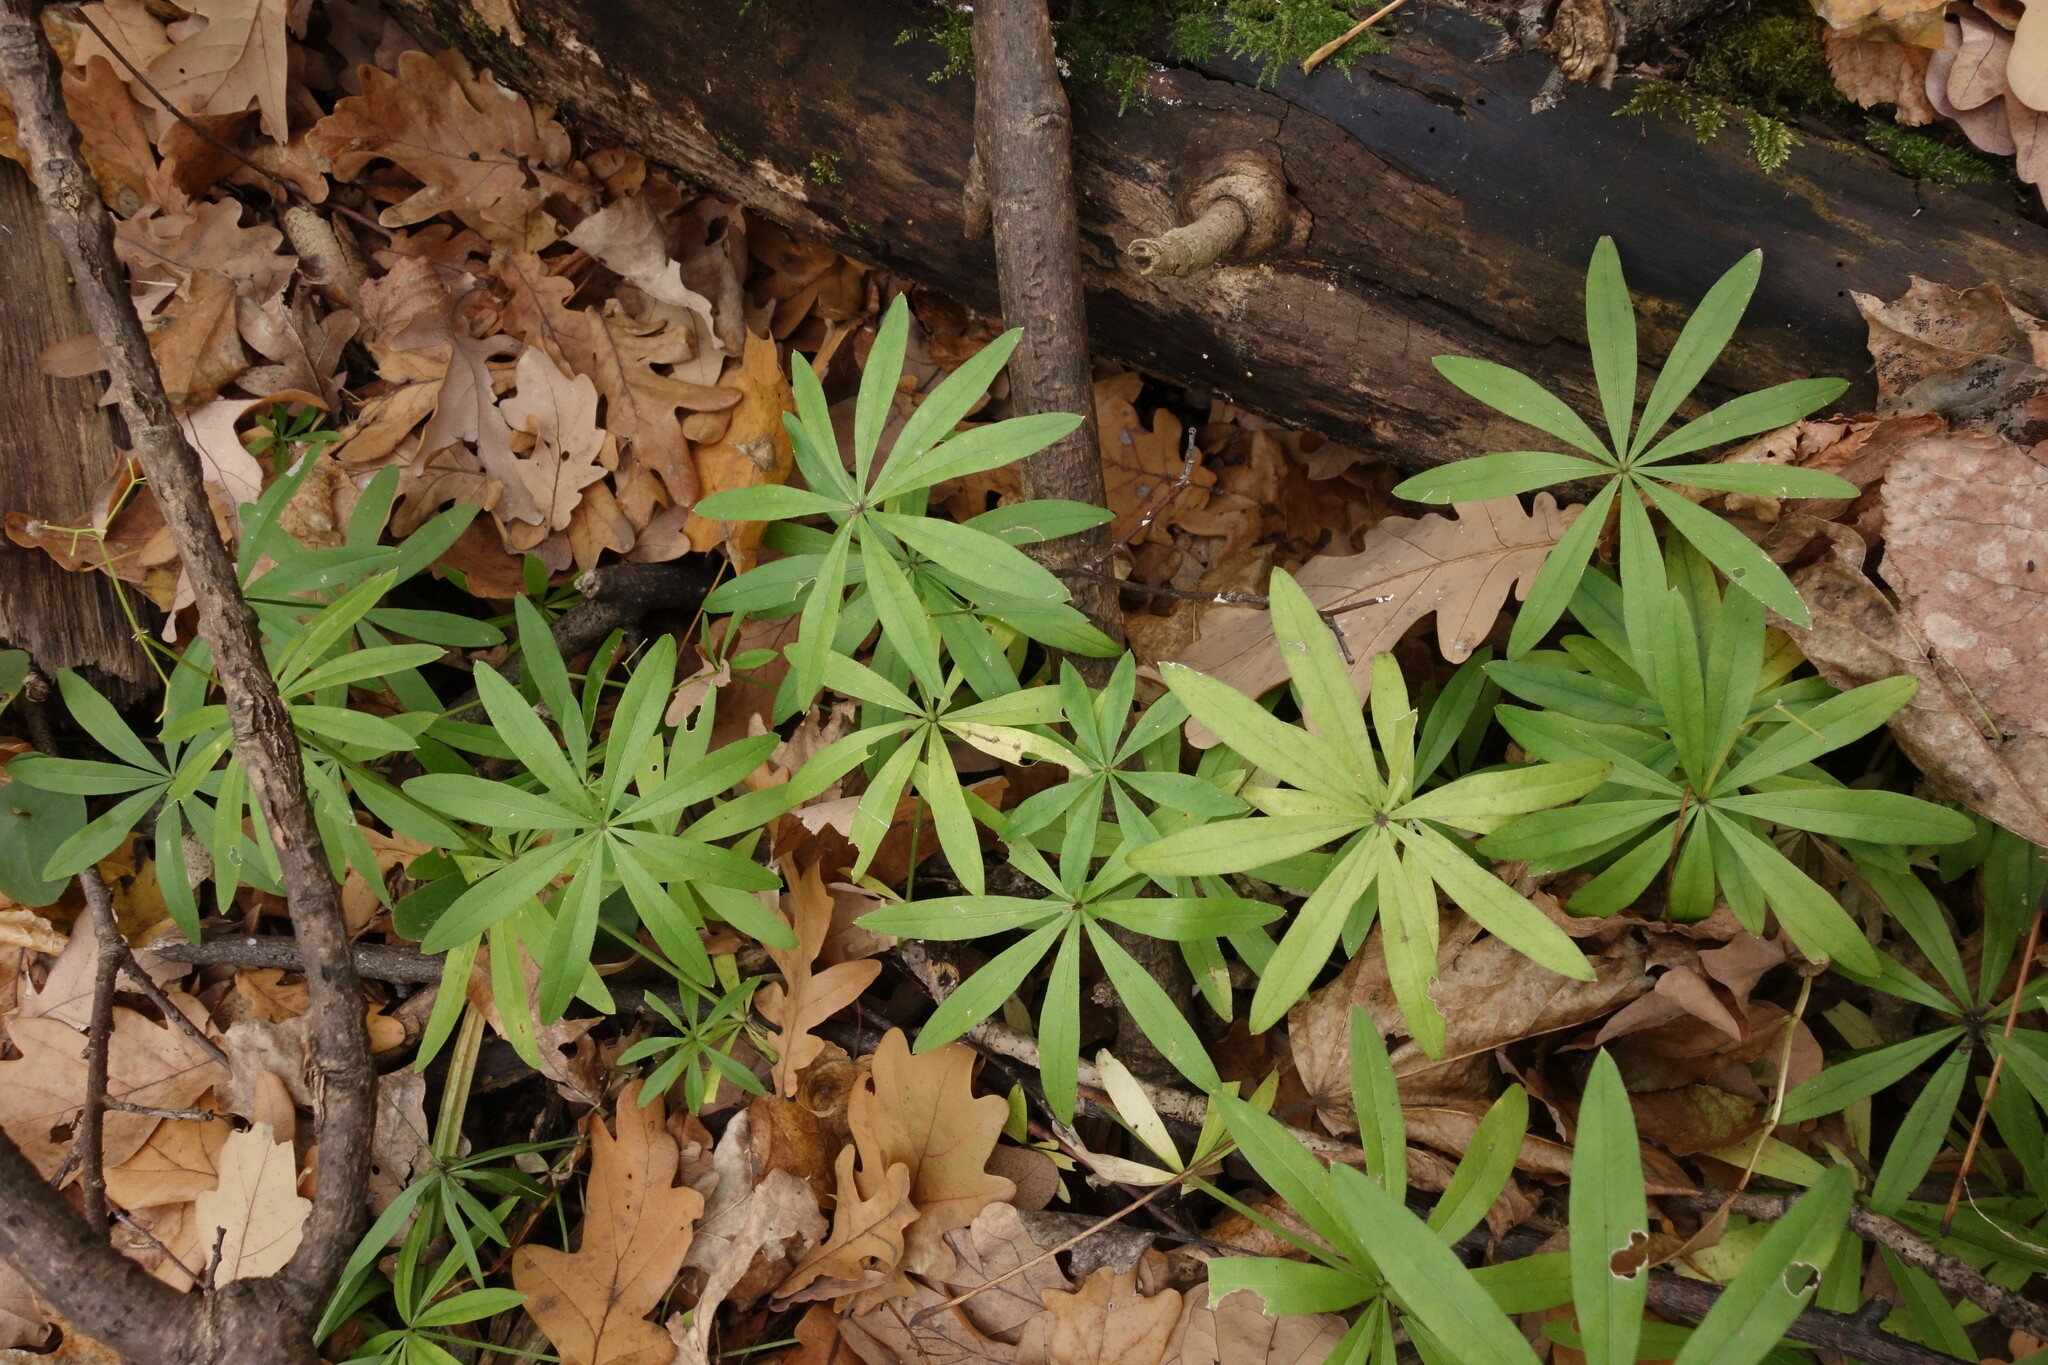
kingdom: Plantae
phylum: Tracheophyta
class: Magnoliopsida
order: Gentianales
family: Rubiaceae
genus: Galium
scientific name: Galium odoratum
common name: Sweet woodruff
